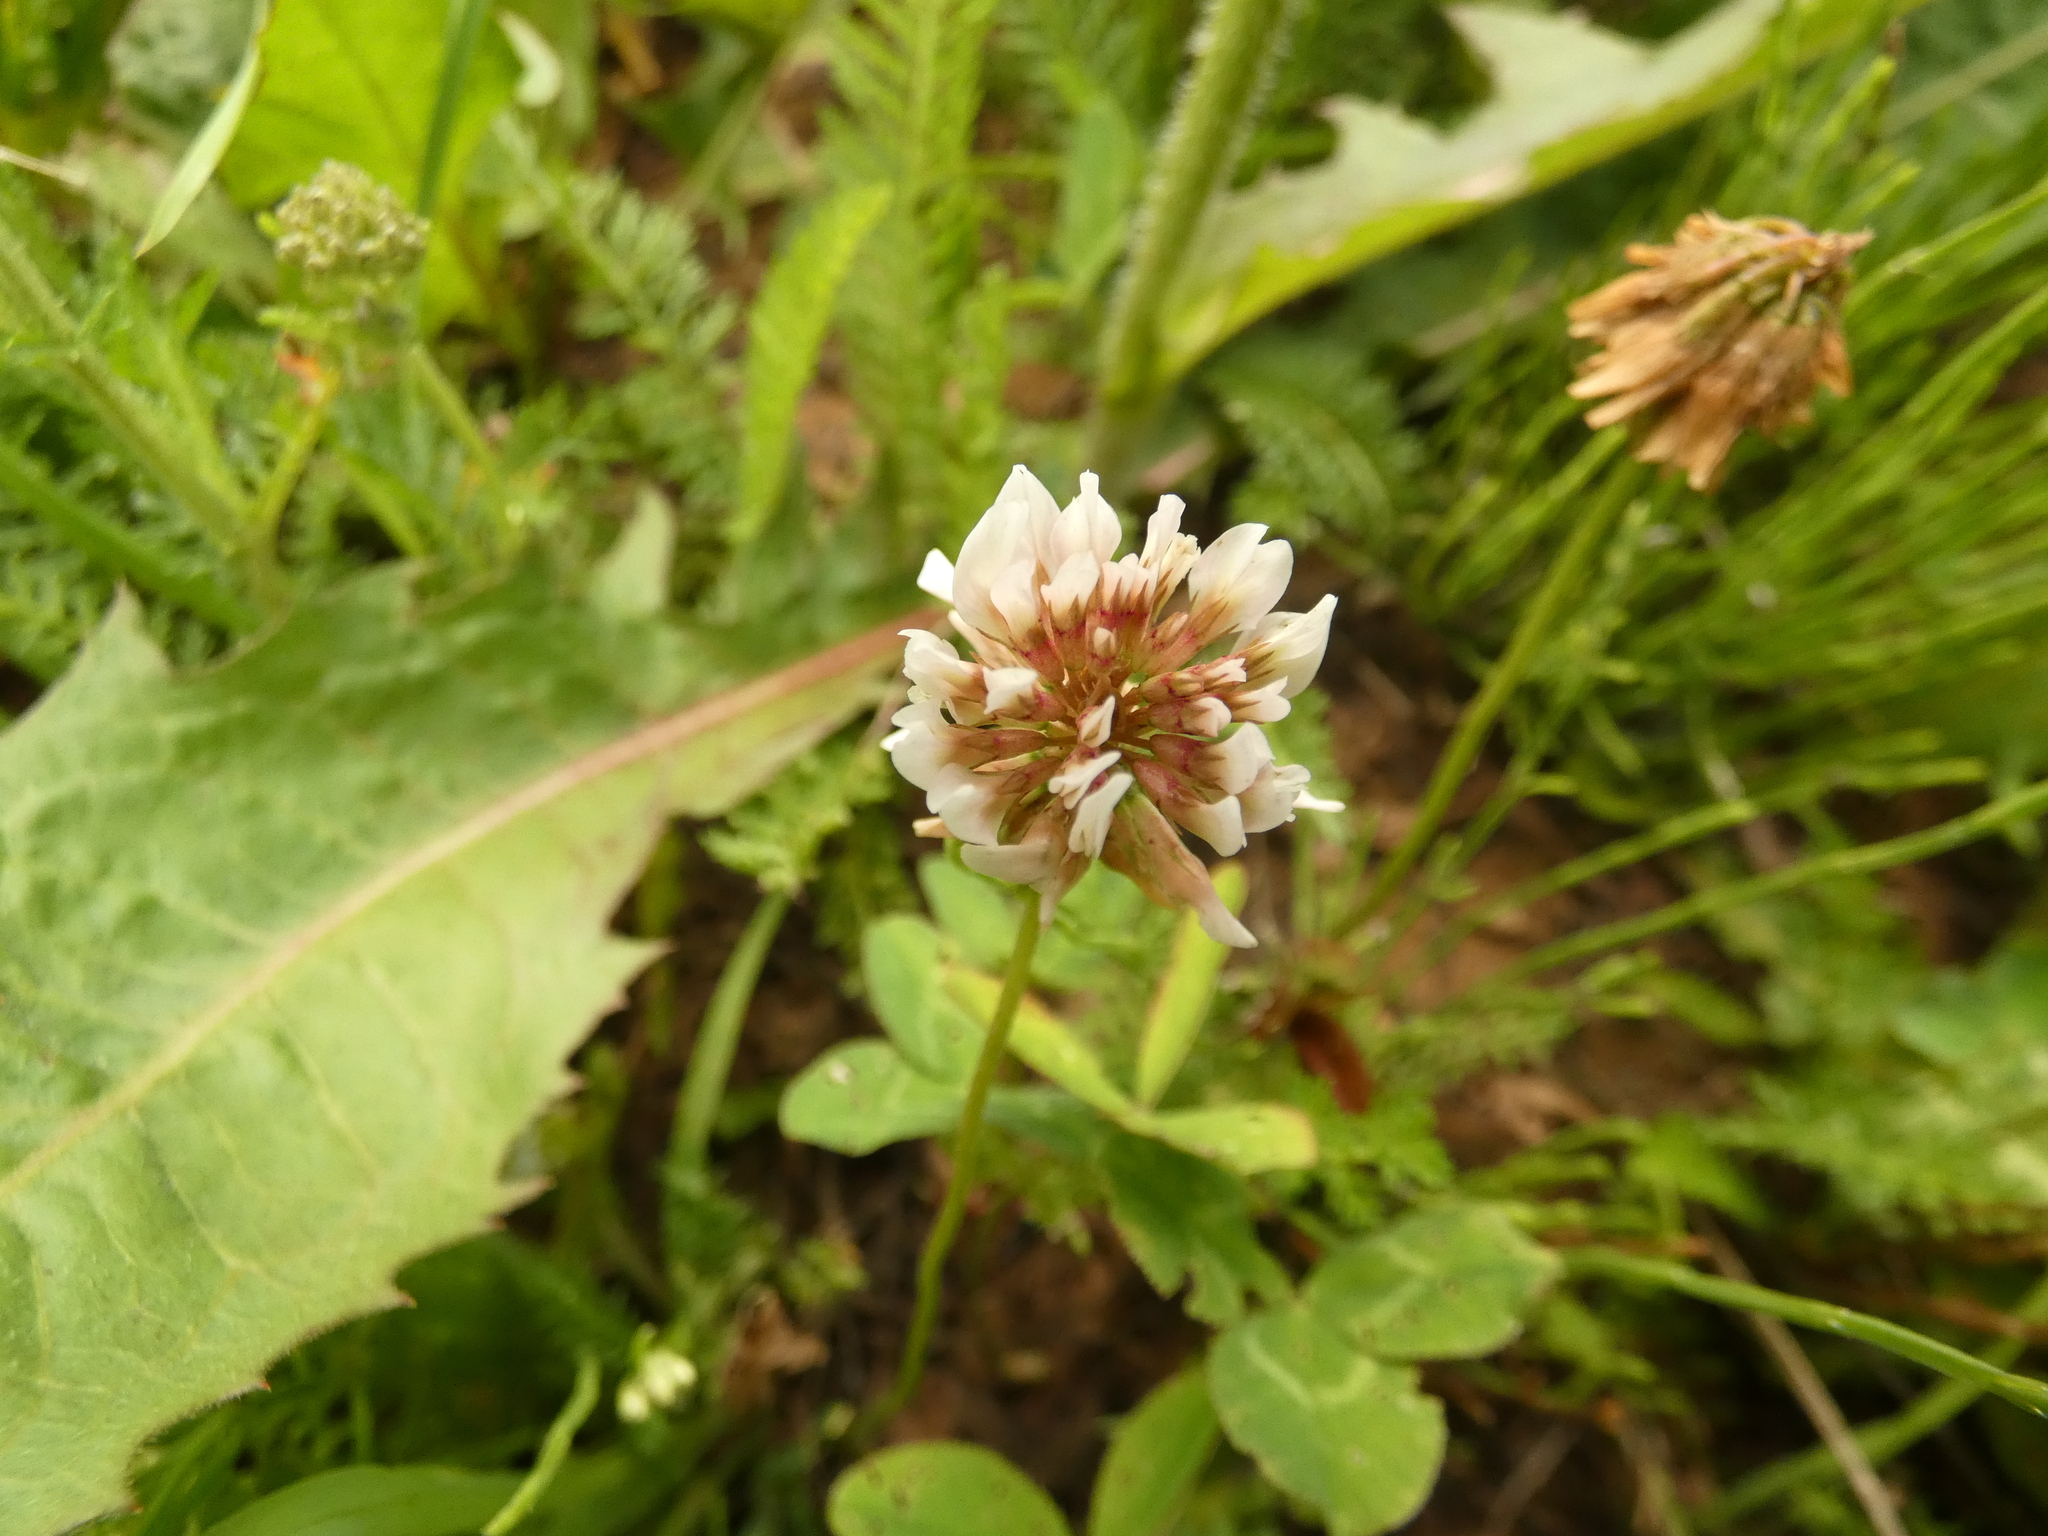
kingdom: Plantae
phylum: Tracheophyta
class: Magnoliopsida
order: Fabales
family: Fabaceae
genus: Trifolium
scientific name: Trifolium repens
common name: White clover
